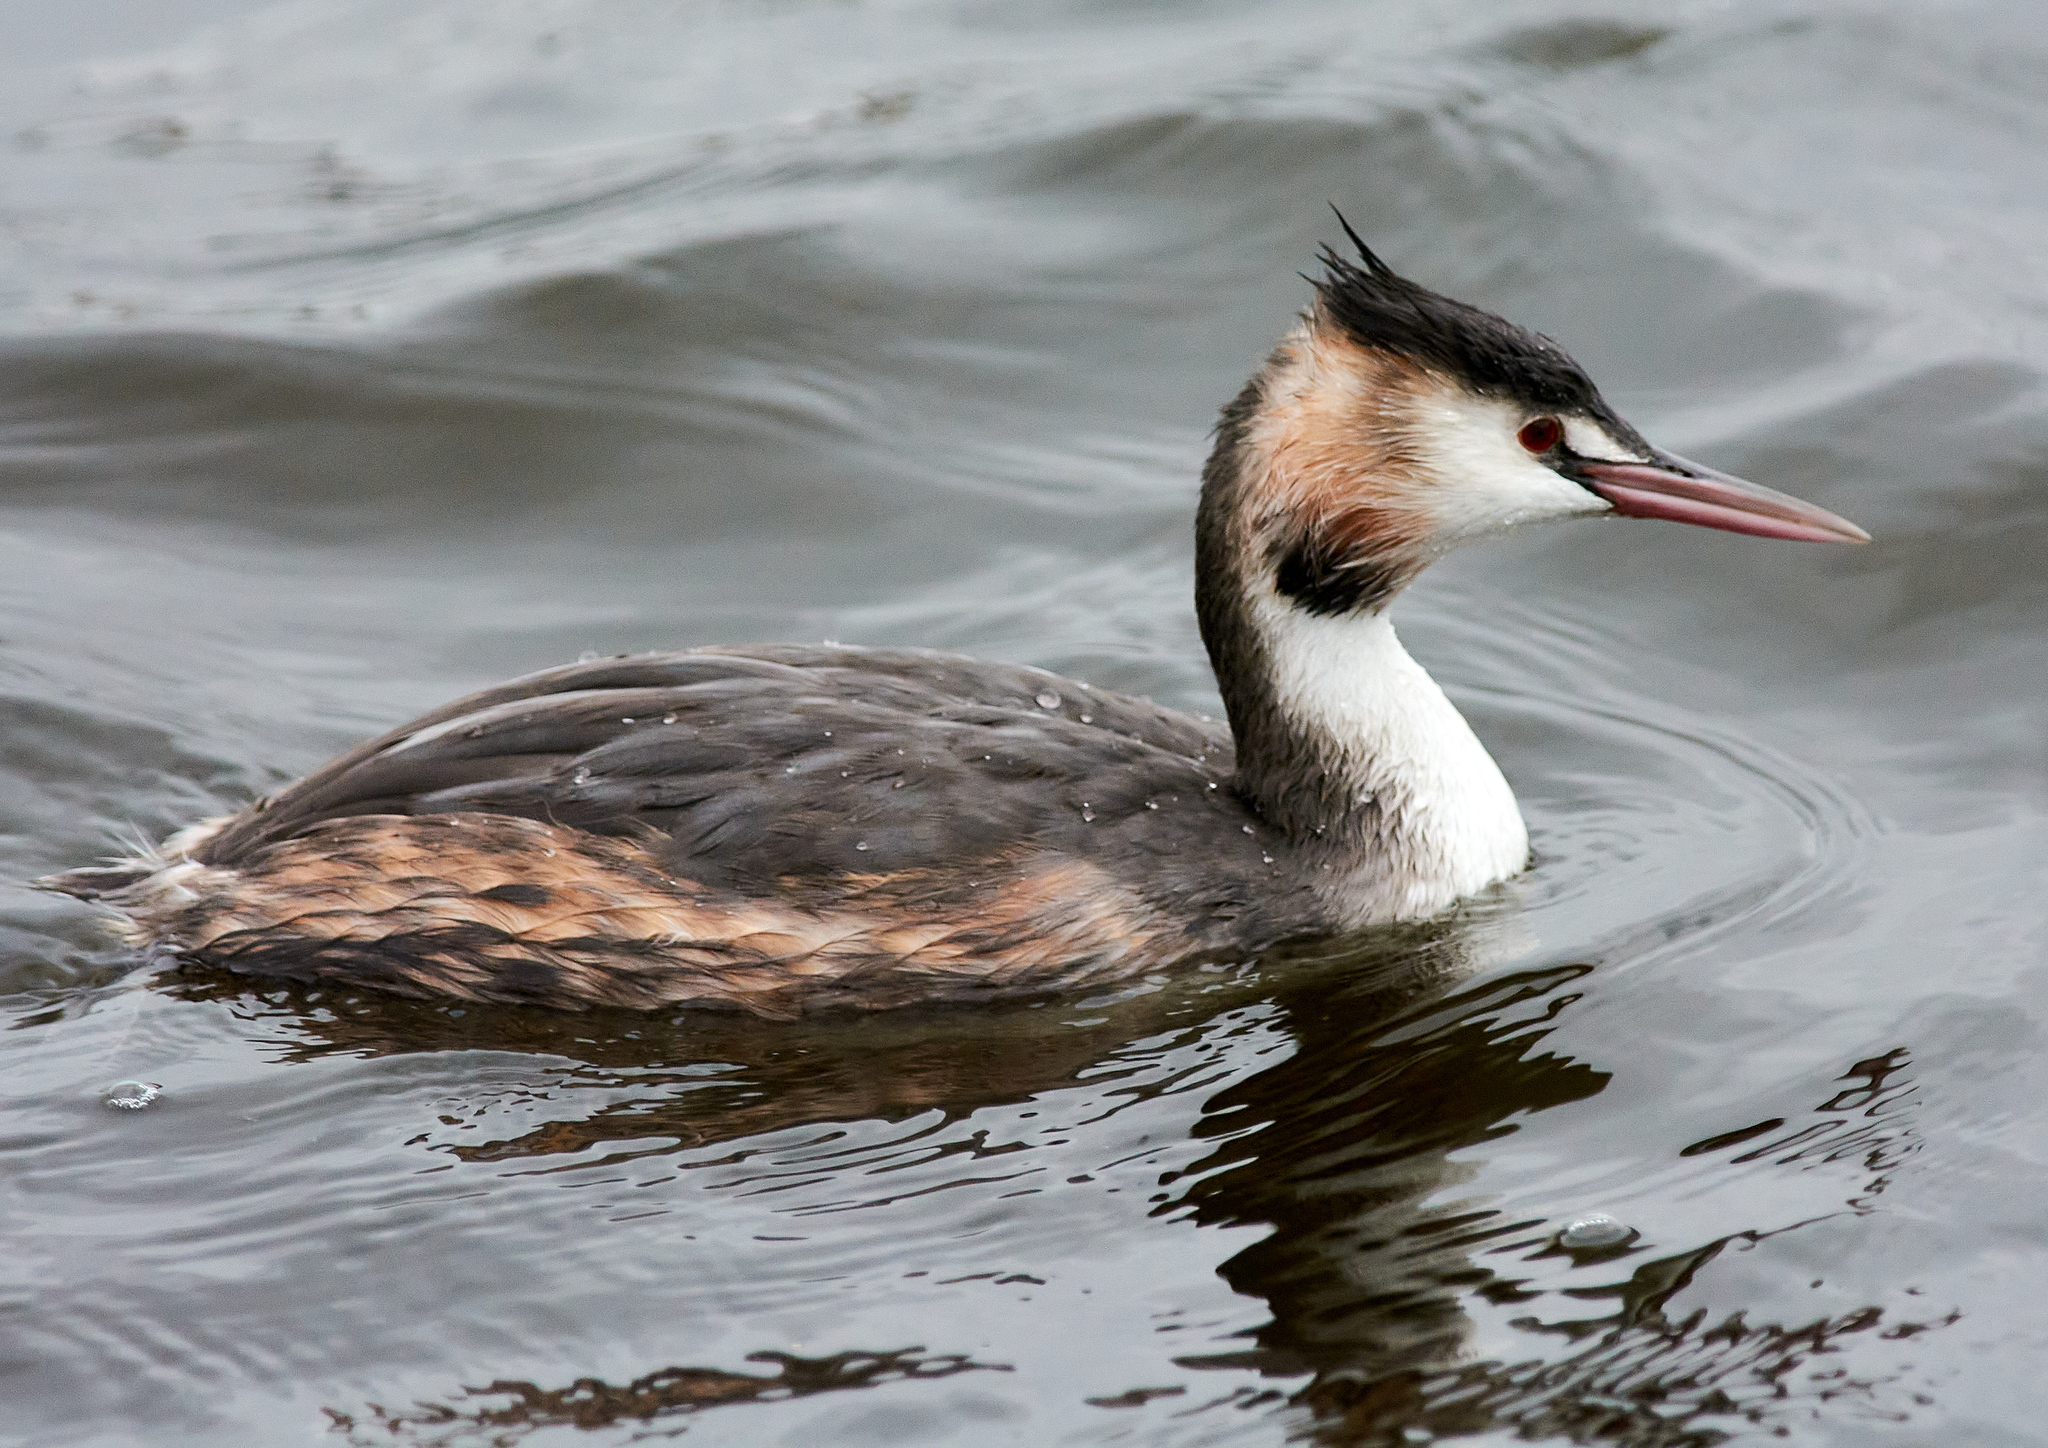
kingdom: Animalia
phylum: Chordata
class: Aves
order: Podicipediformes
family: Podicipedidae
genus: Podiceps
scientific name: Podiceps cristatus
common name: Great crested grebe
